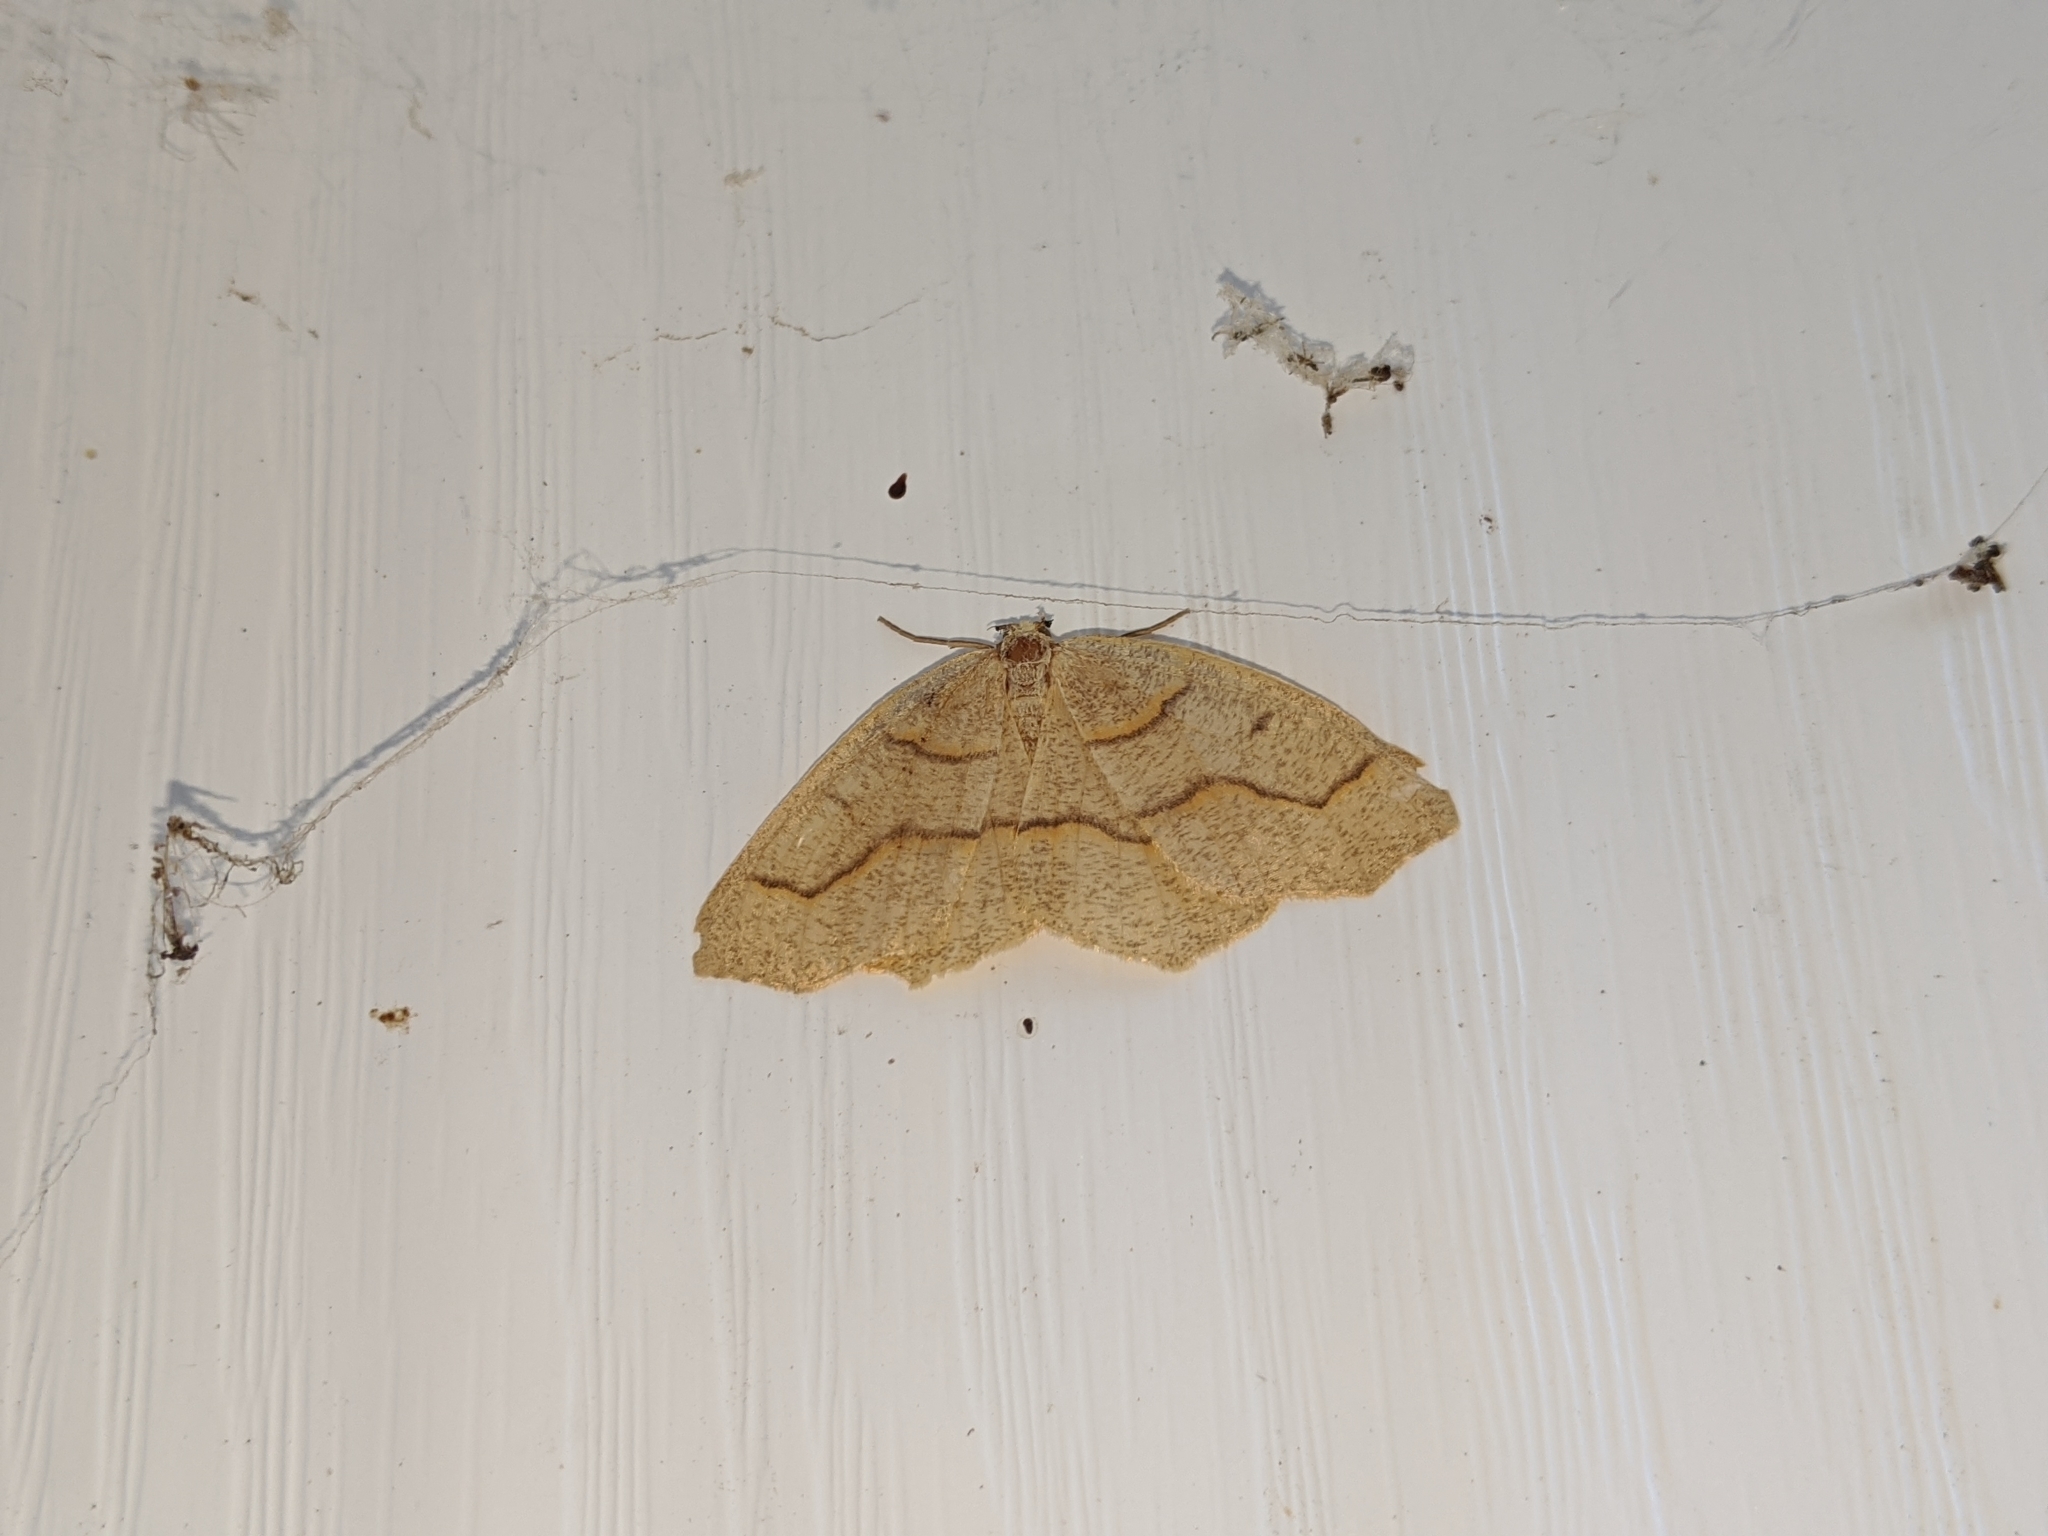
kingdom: Animalia
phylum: Arthropoda
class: Insecta
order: Lepidoptera
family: Geometridae
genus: Lambdina
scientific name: Lambdina fiscellaria
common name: Hemlock looper
